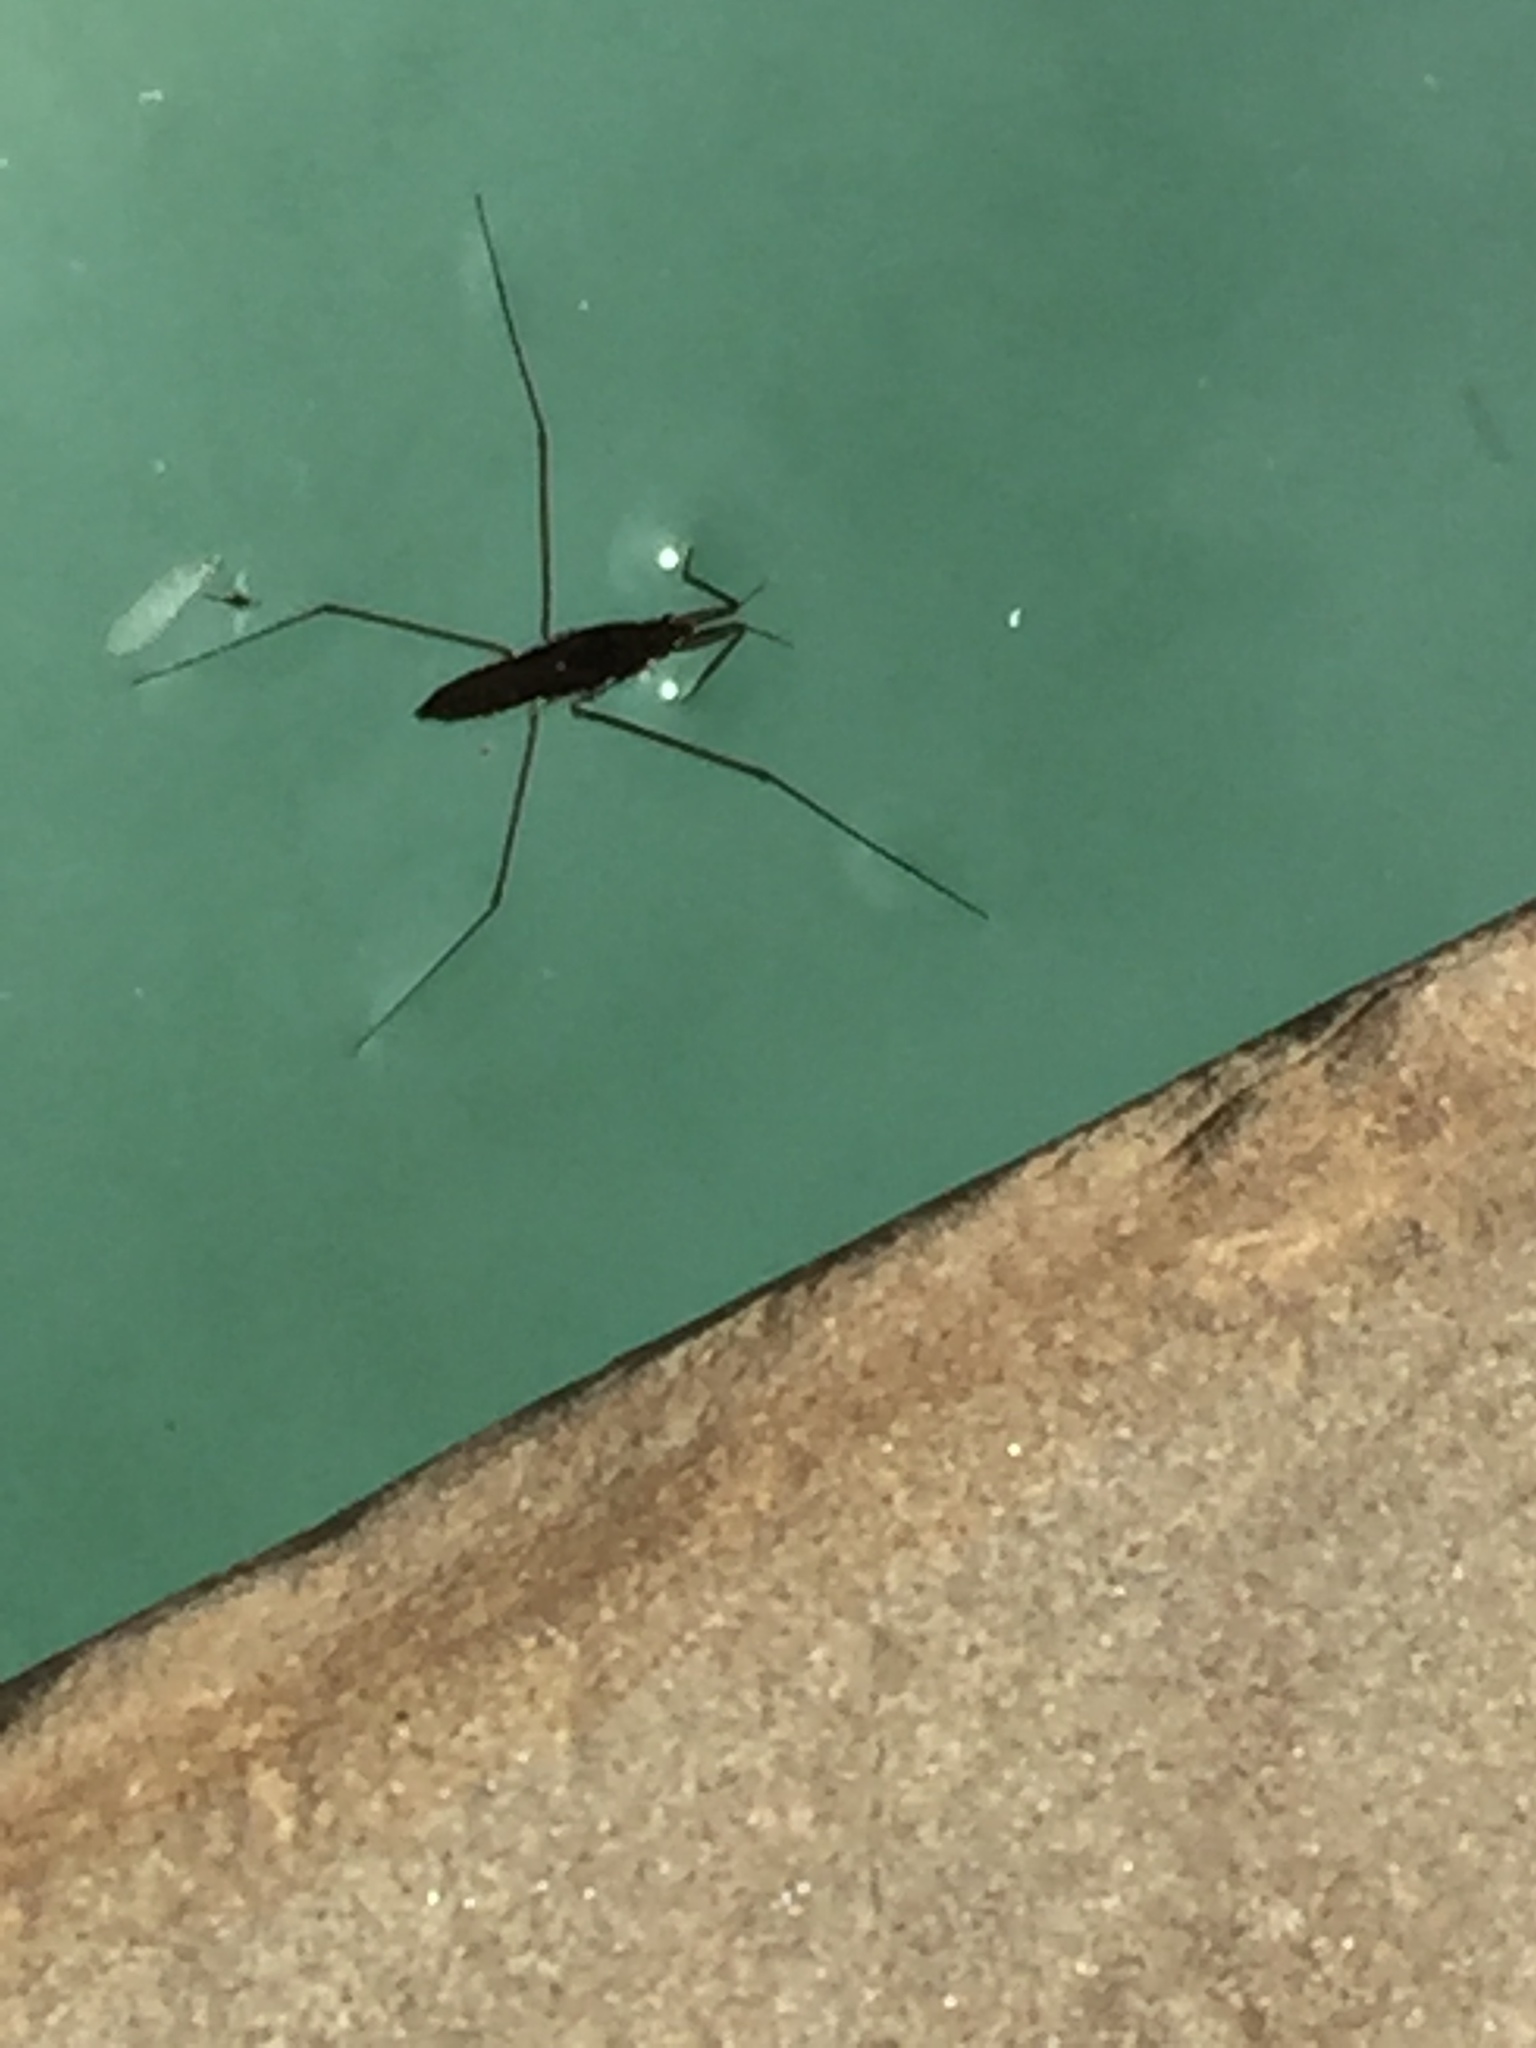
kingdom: Animalia
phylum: Arthropoda
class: Insecta
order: Hemiptera
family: Gerridae
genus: Aquarius
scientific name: Aquarius remigis
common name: Common water strider
